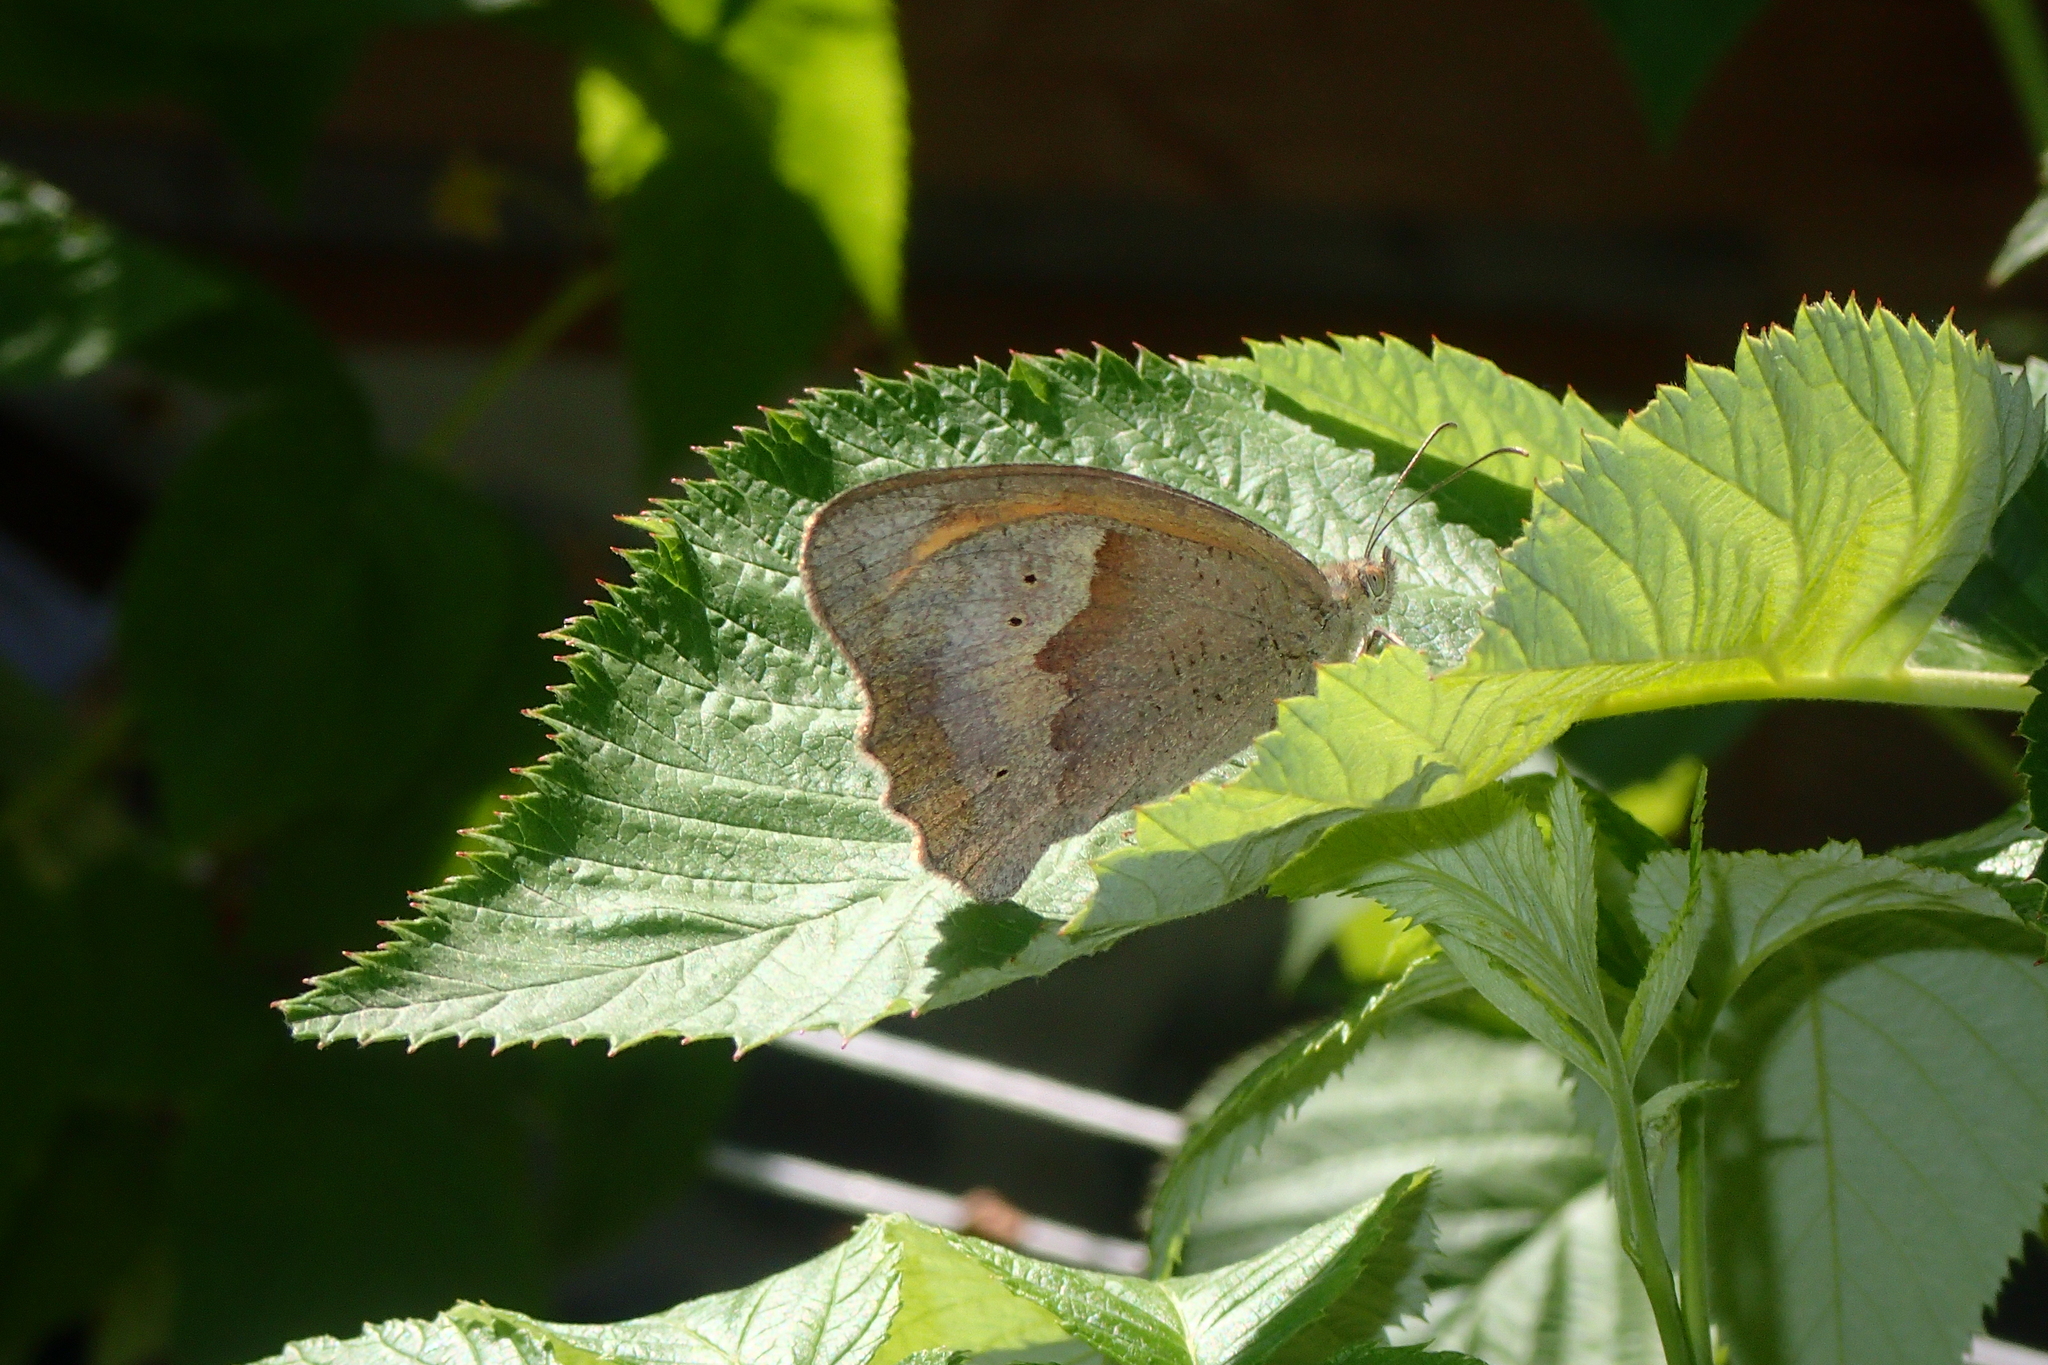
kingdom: Animalia
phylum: Arthropoda
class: Insecta
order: Lepidoptera
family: Nymphalidae
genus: Maniola
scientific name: Maniola jurtina
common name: Meadow brown
